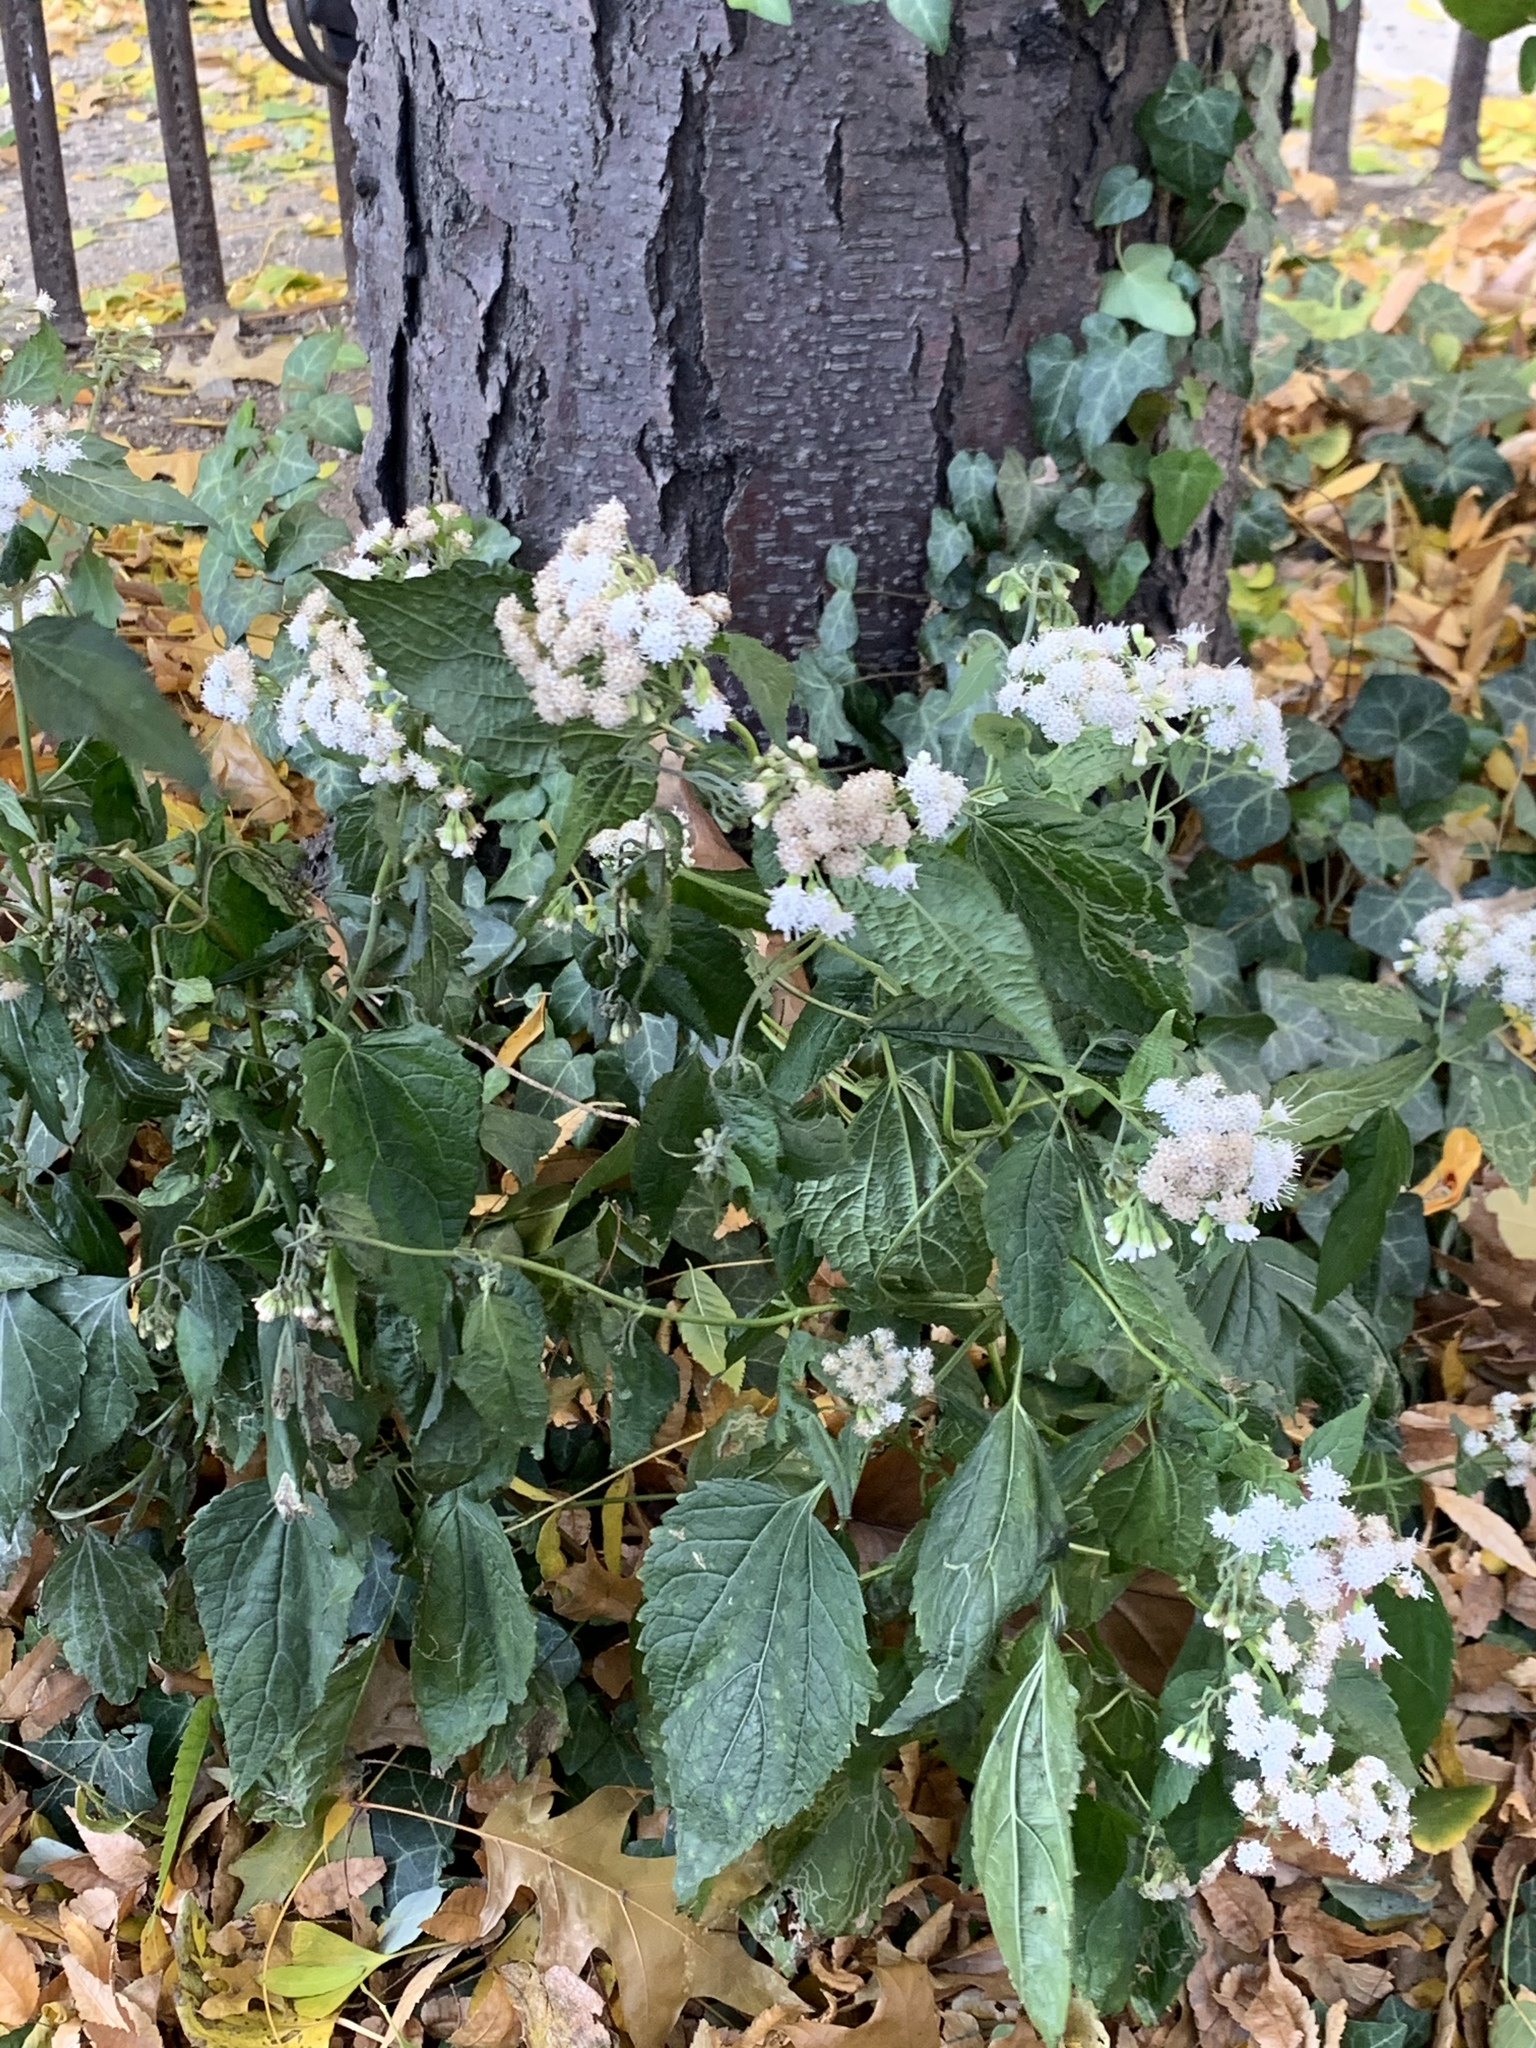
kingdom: Plantae
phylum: Tracheophyta
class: Magnoliopsida
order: Asterales
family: Asteraceae
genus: Ageratina
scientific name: Ageratina altissima
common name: White snakeroot
